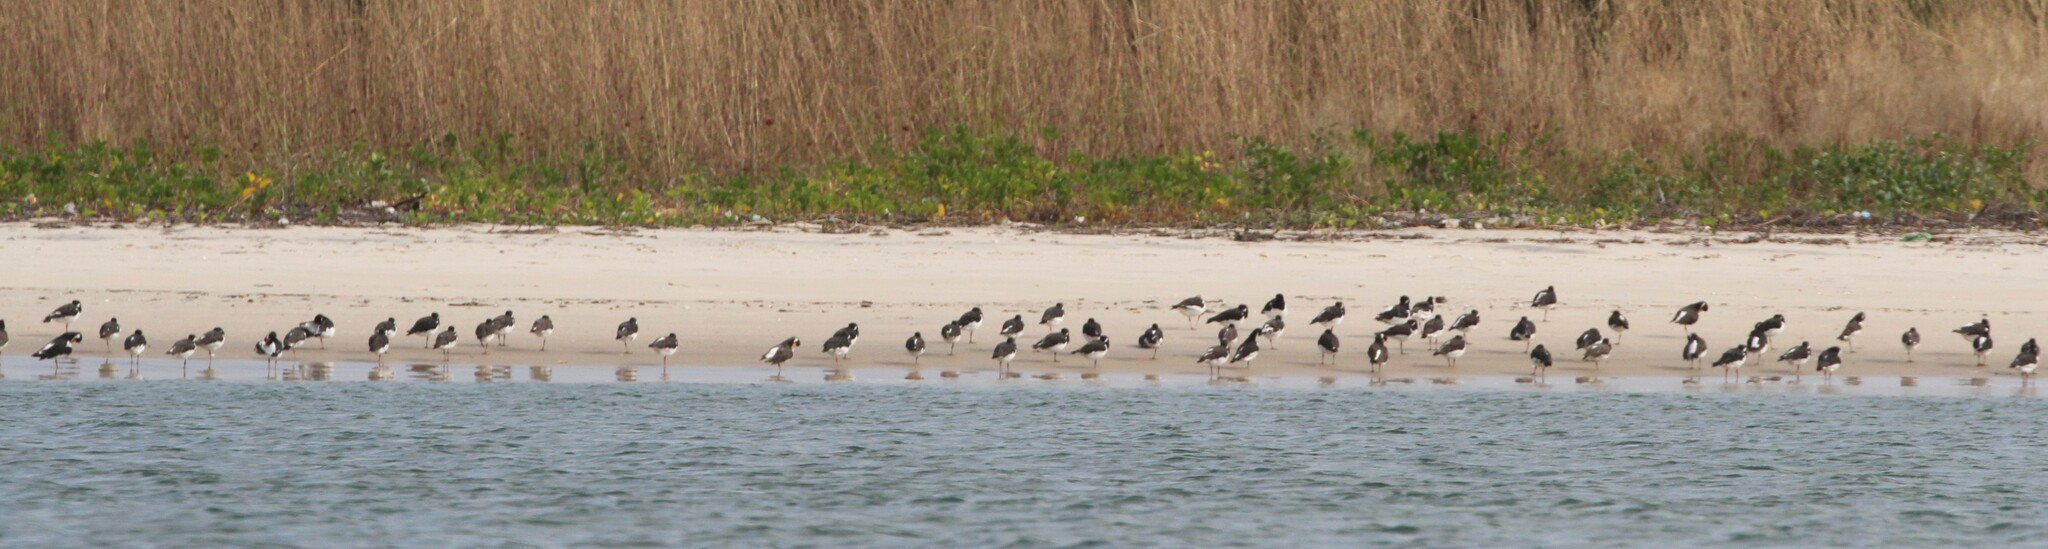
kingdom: Animalia
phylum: Chordata
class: Aves
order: Charadriiformes
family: Haematopodidae
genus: Haematopus
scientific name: Haematopus ostralegus
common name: Eurasian oystercatcher
